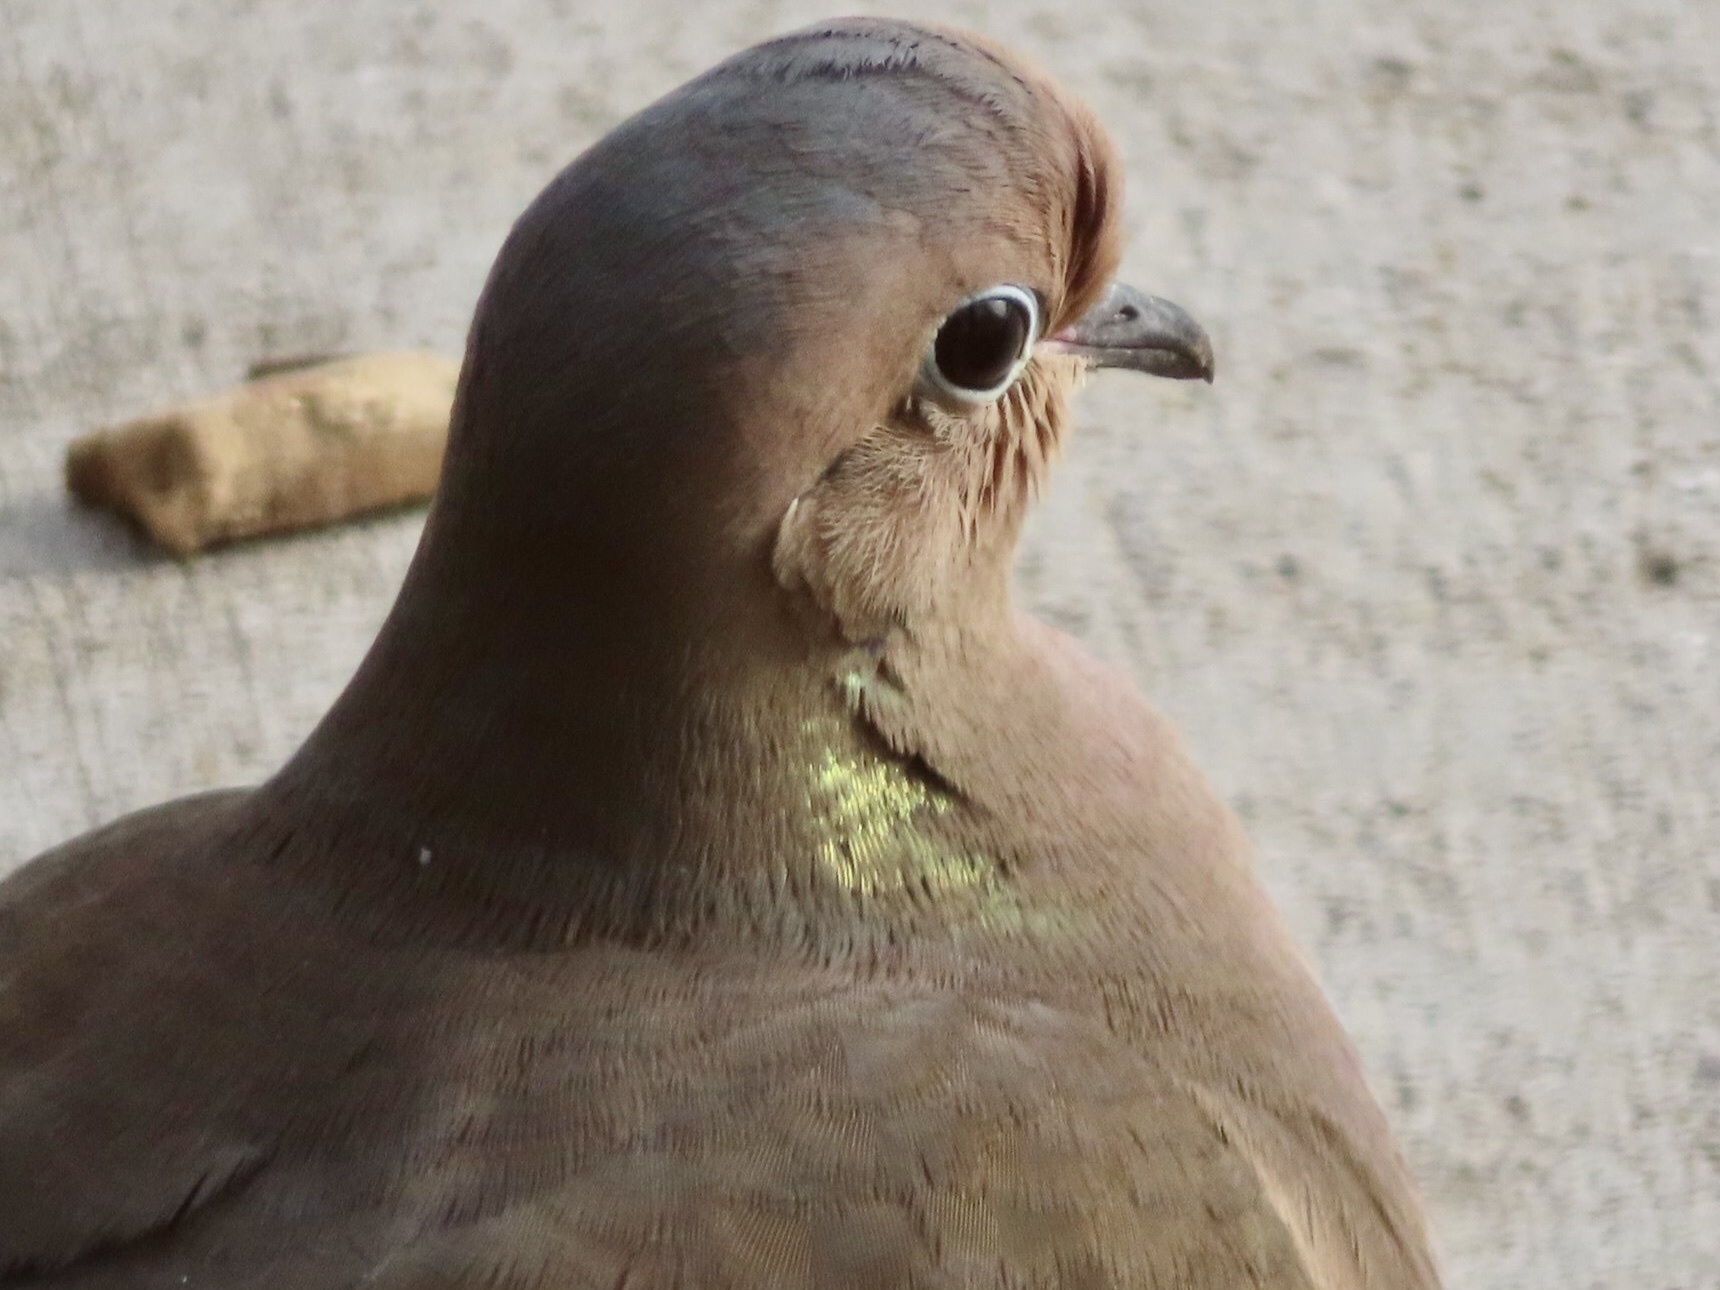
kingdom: Animalia
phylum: Chordata
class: Aves
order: Columbiformes
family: Columbidae
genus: Zenaida
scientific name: Zenaida macroura
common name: Mourning dove
